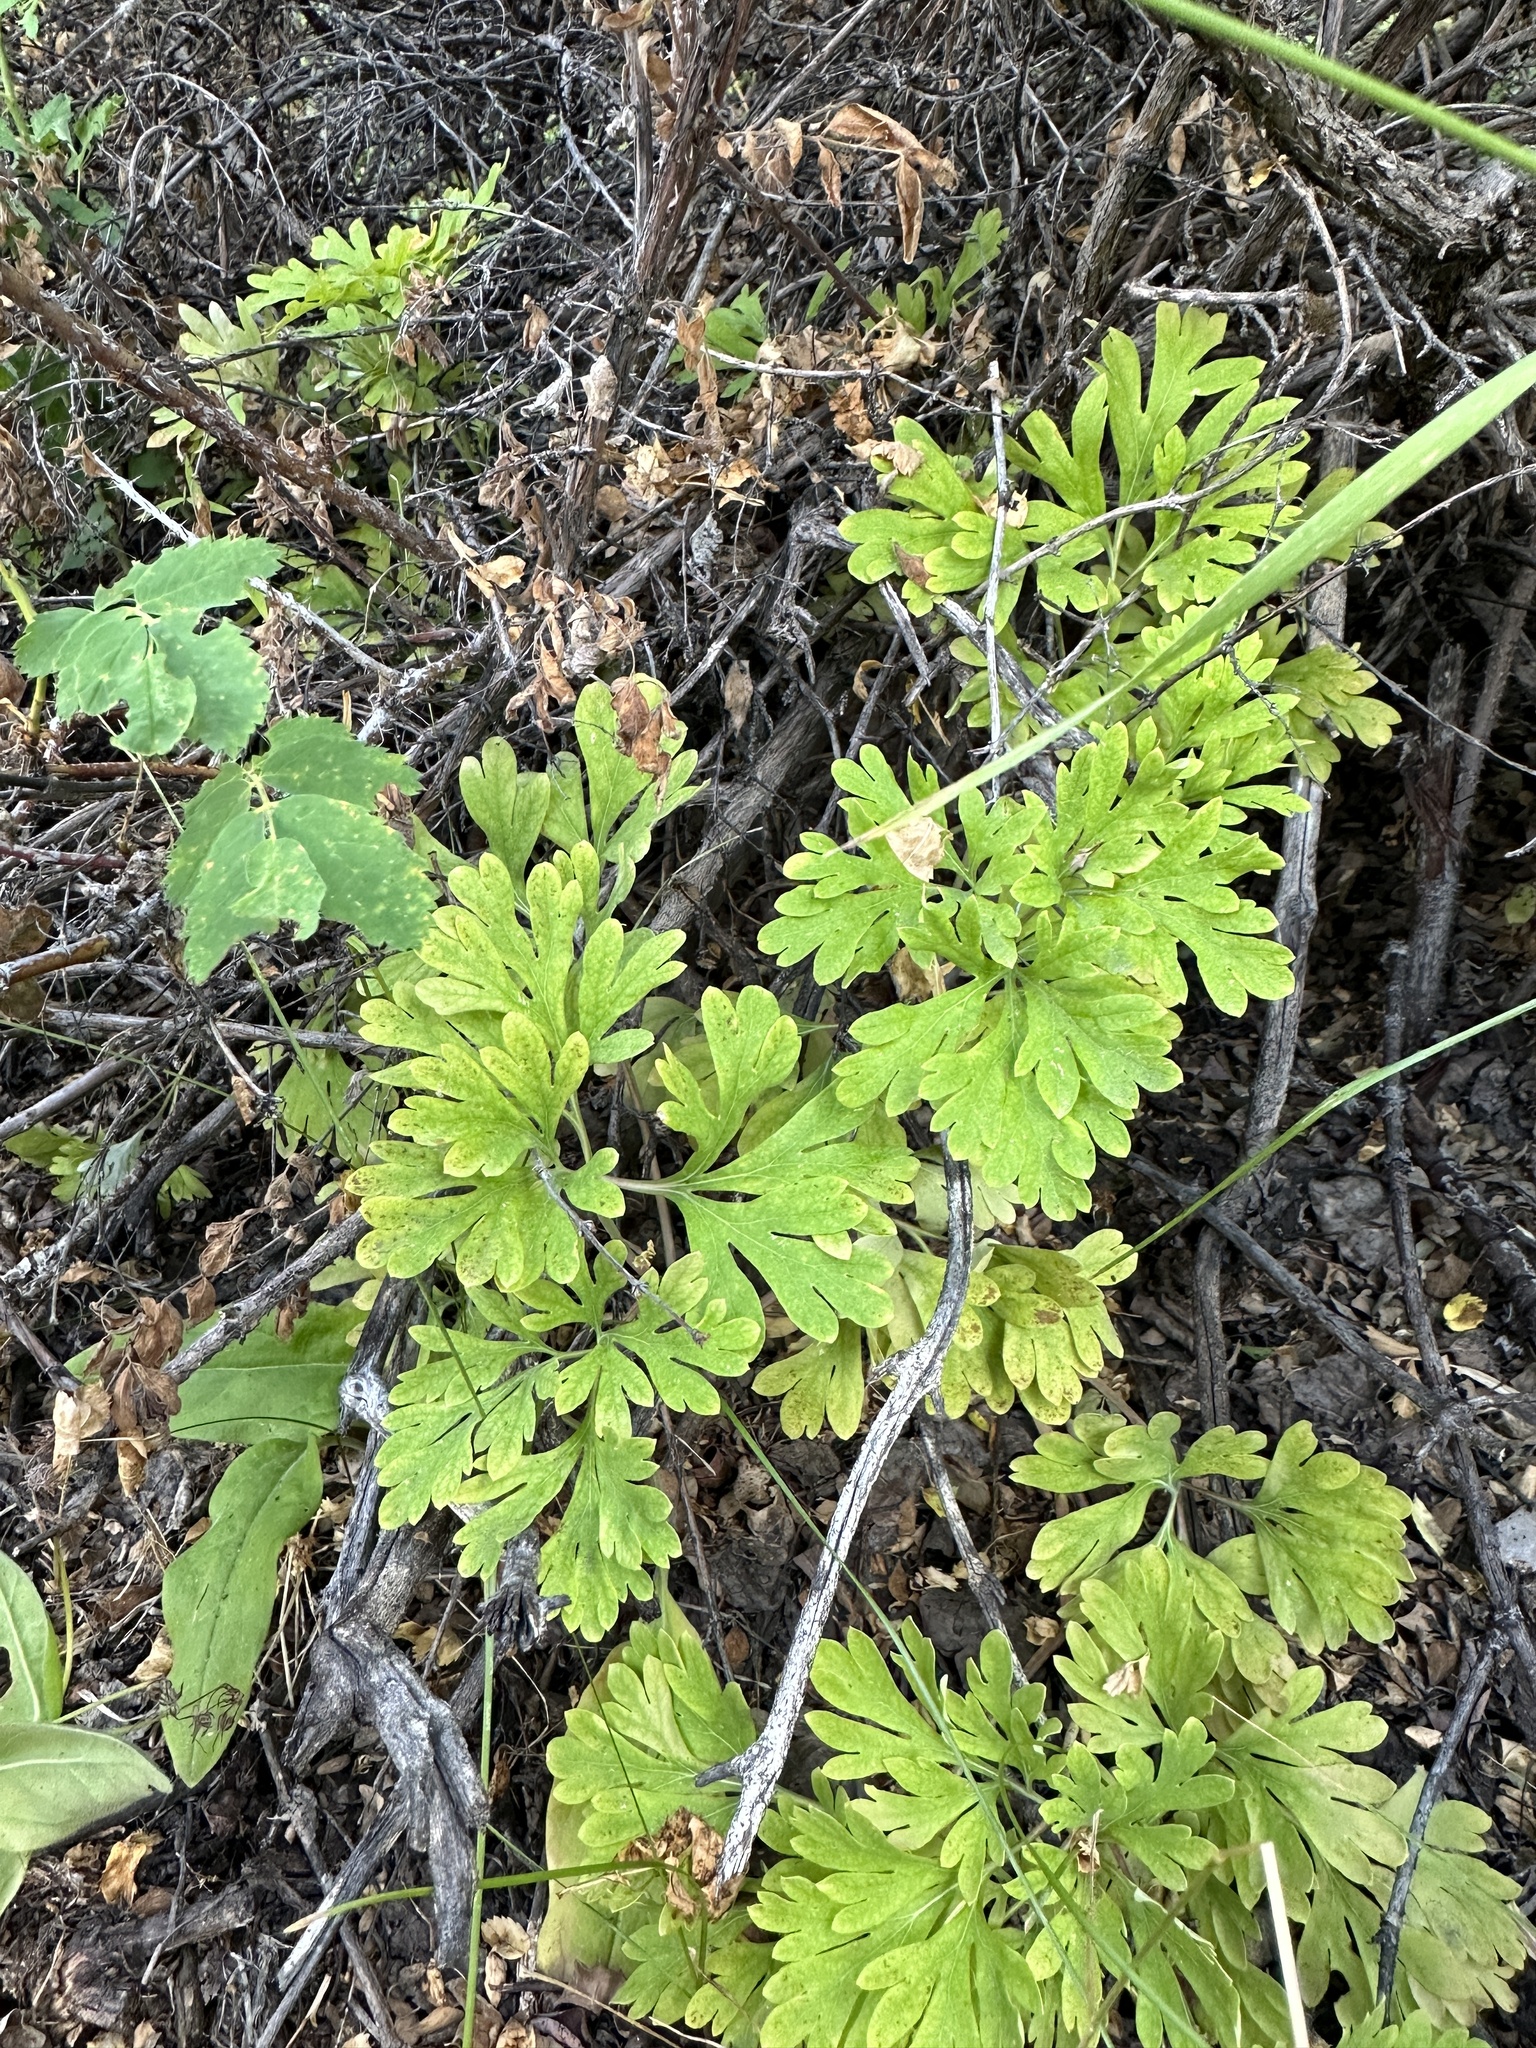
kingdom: Plantae
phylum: Tracheophyta
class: Magnoliopsida
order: Saxifragales
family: Paeoniaceae
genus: Paeonia
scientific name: Paeonia brownii
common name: Brown's peony
